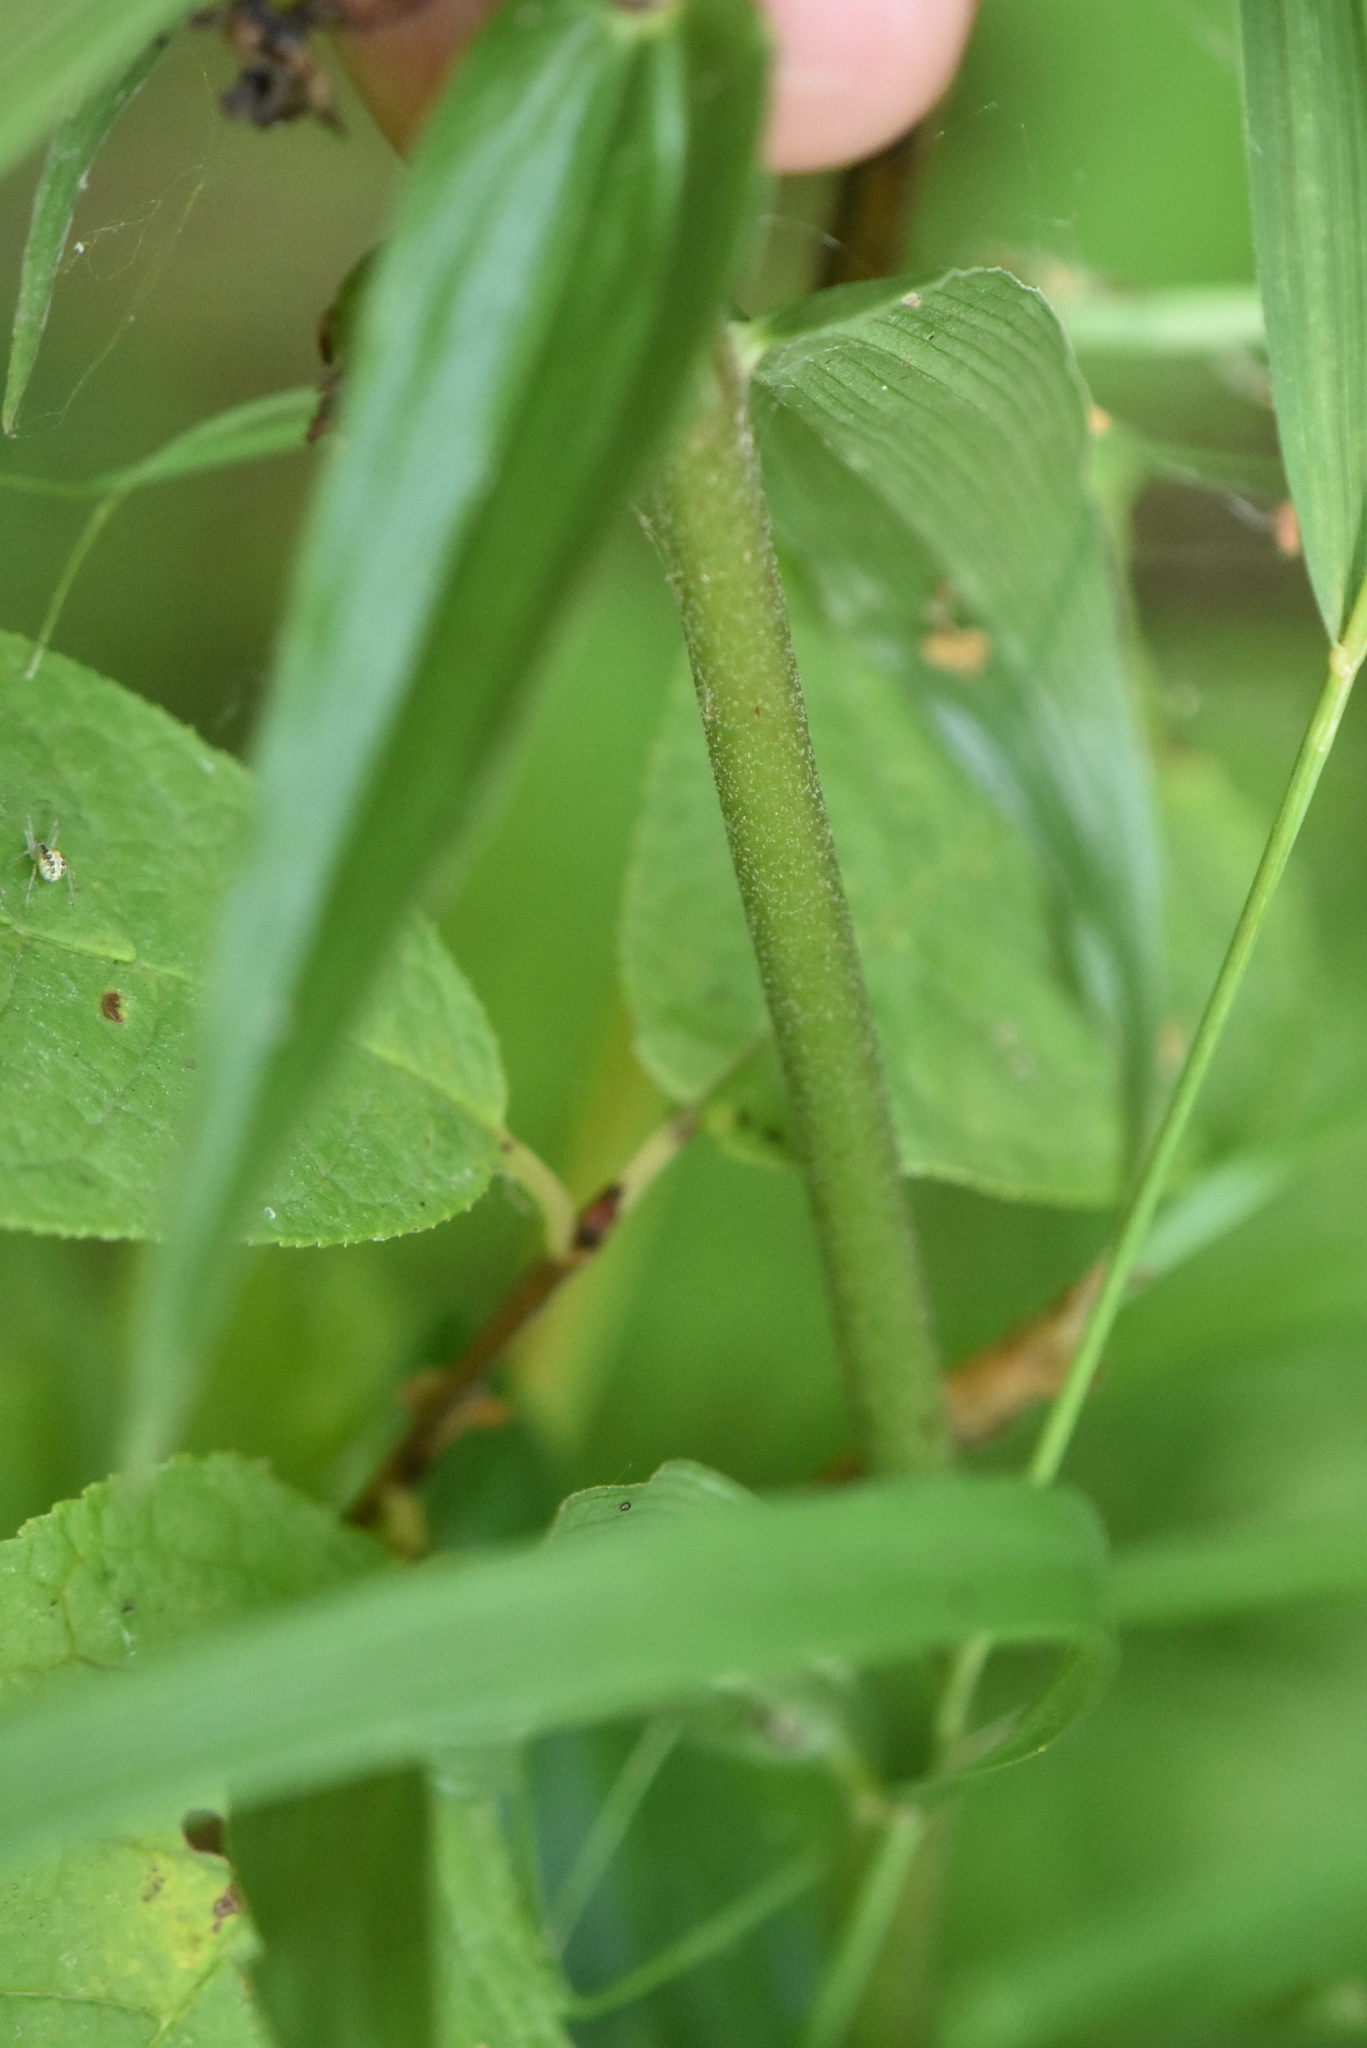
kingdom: Plantae
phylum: Tracheophyta
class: Liliopsida
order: Asparagales
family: Orchidaceae
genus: Epipactis
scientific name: Epipactis helleborine
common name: Broad-leaved helleborine
